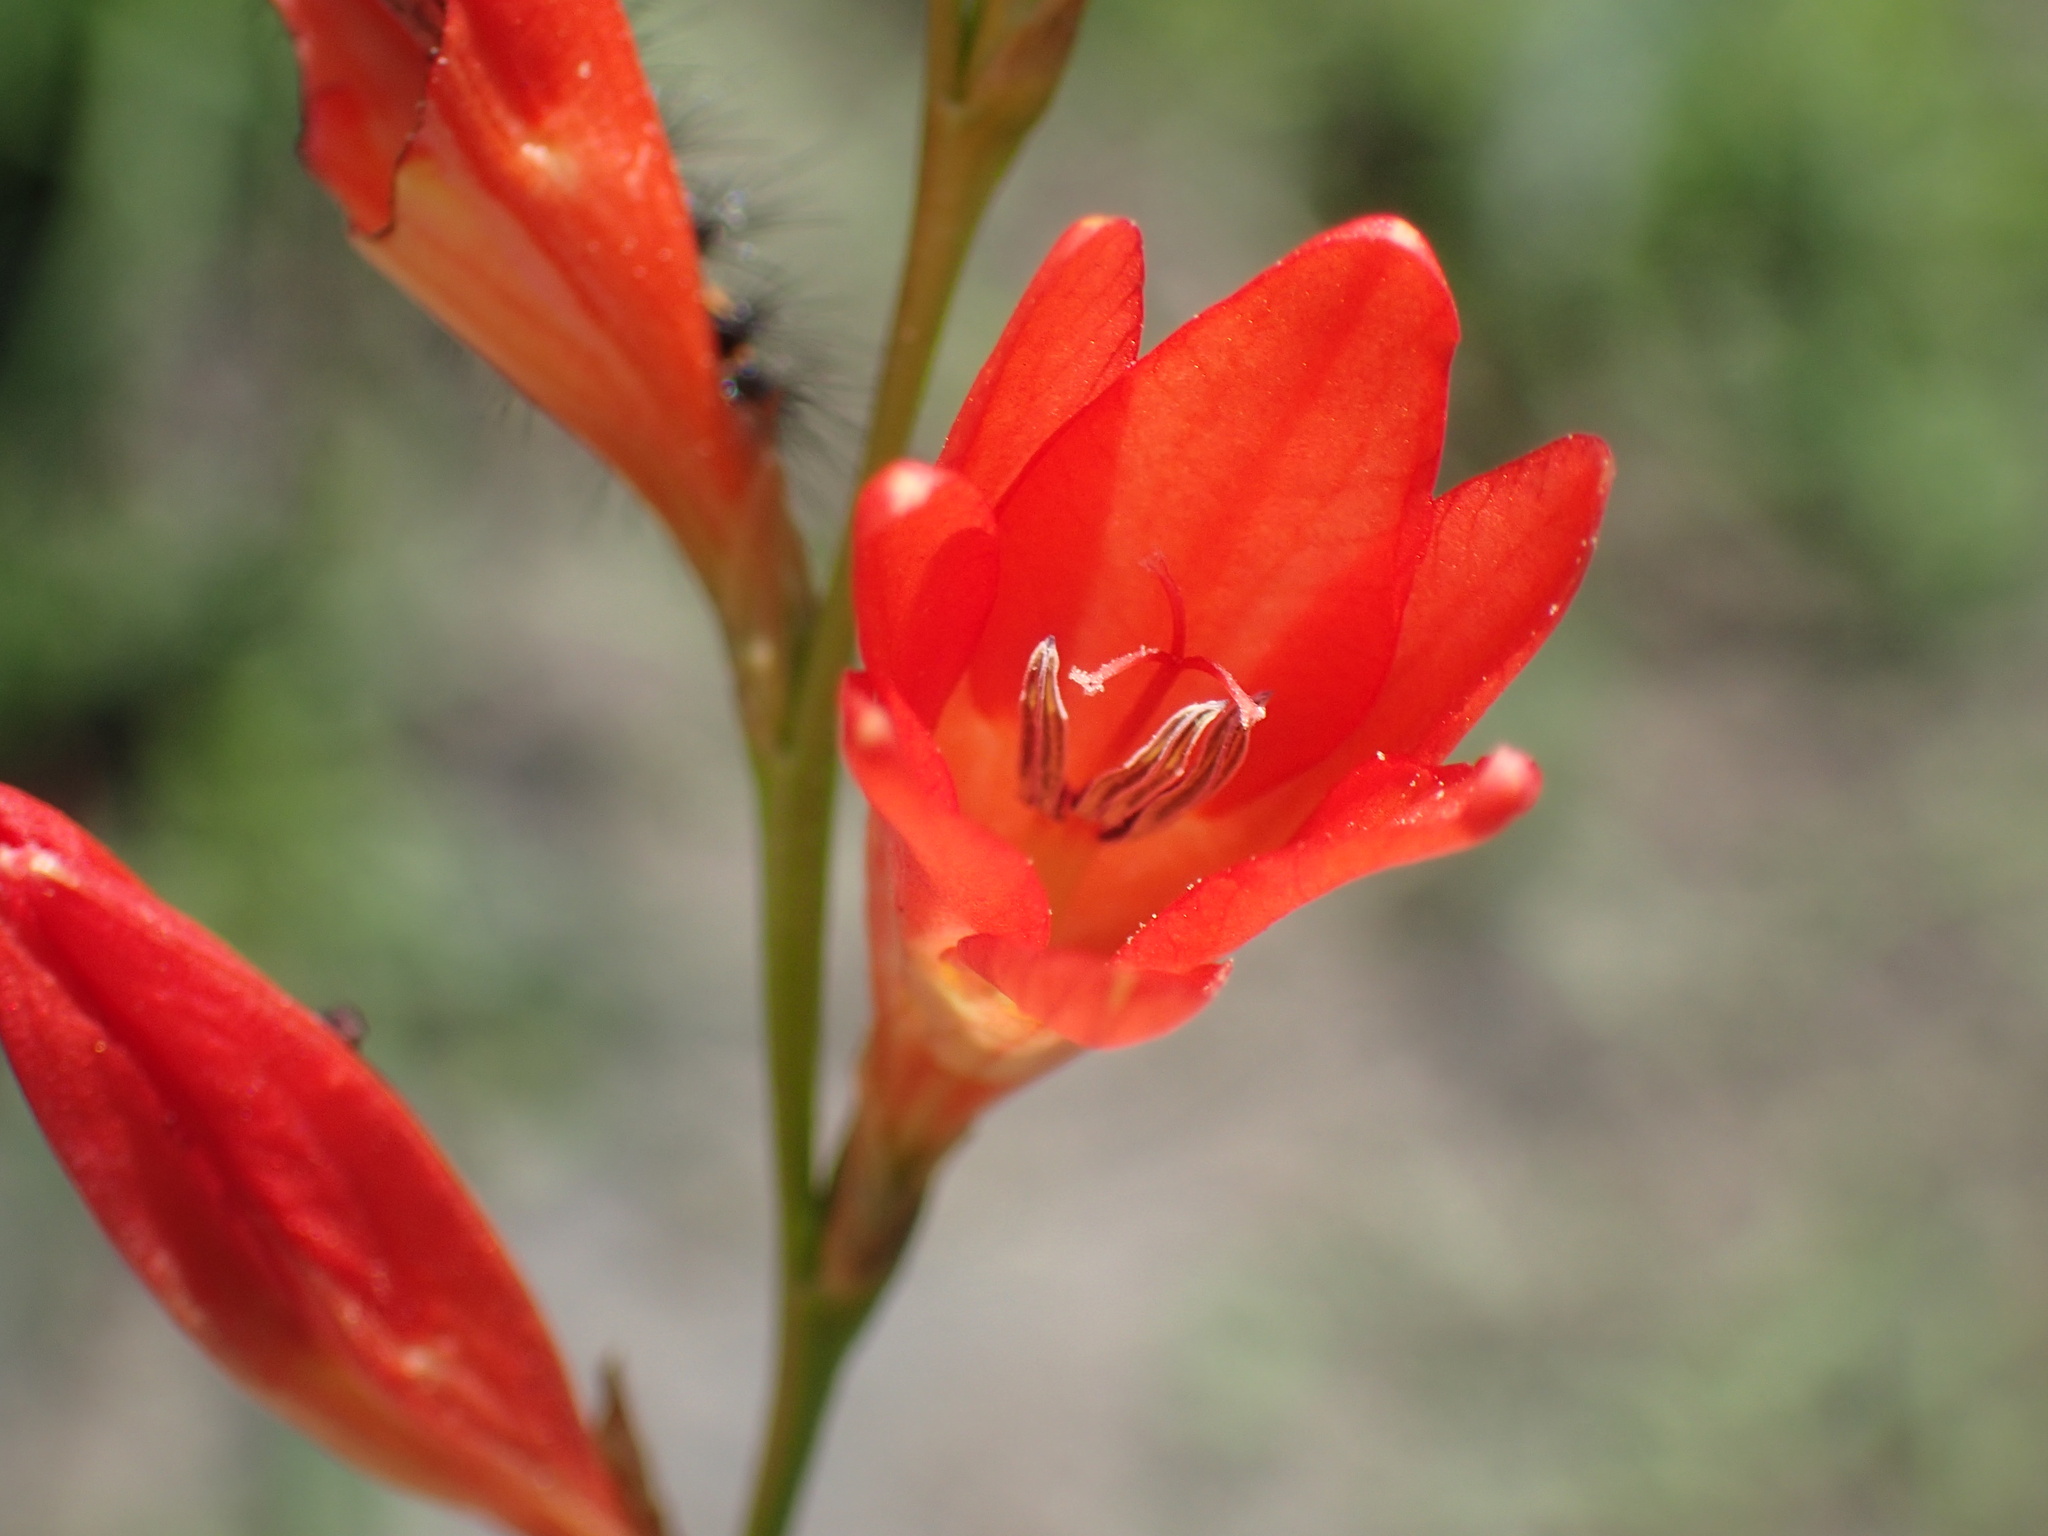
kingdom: Plantae
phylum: Tracheophyta
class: Liliopsida
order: Asparagales
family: Iridaceae
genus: Tritonia
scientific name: Tritonia disticha
